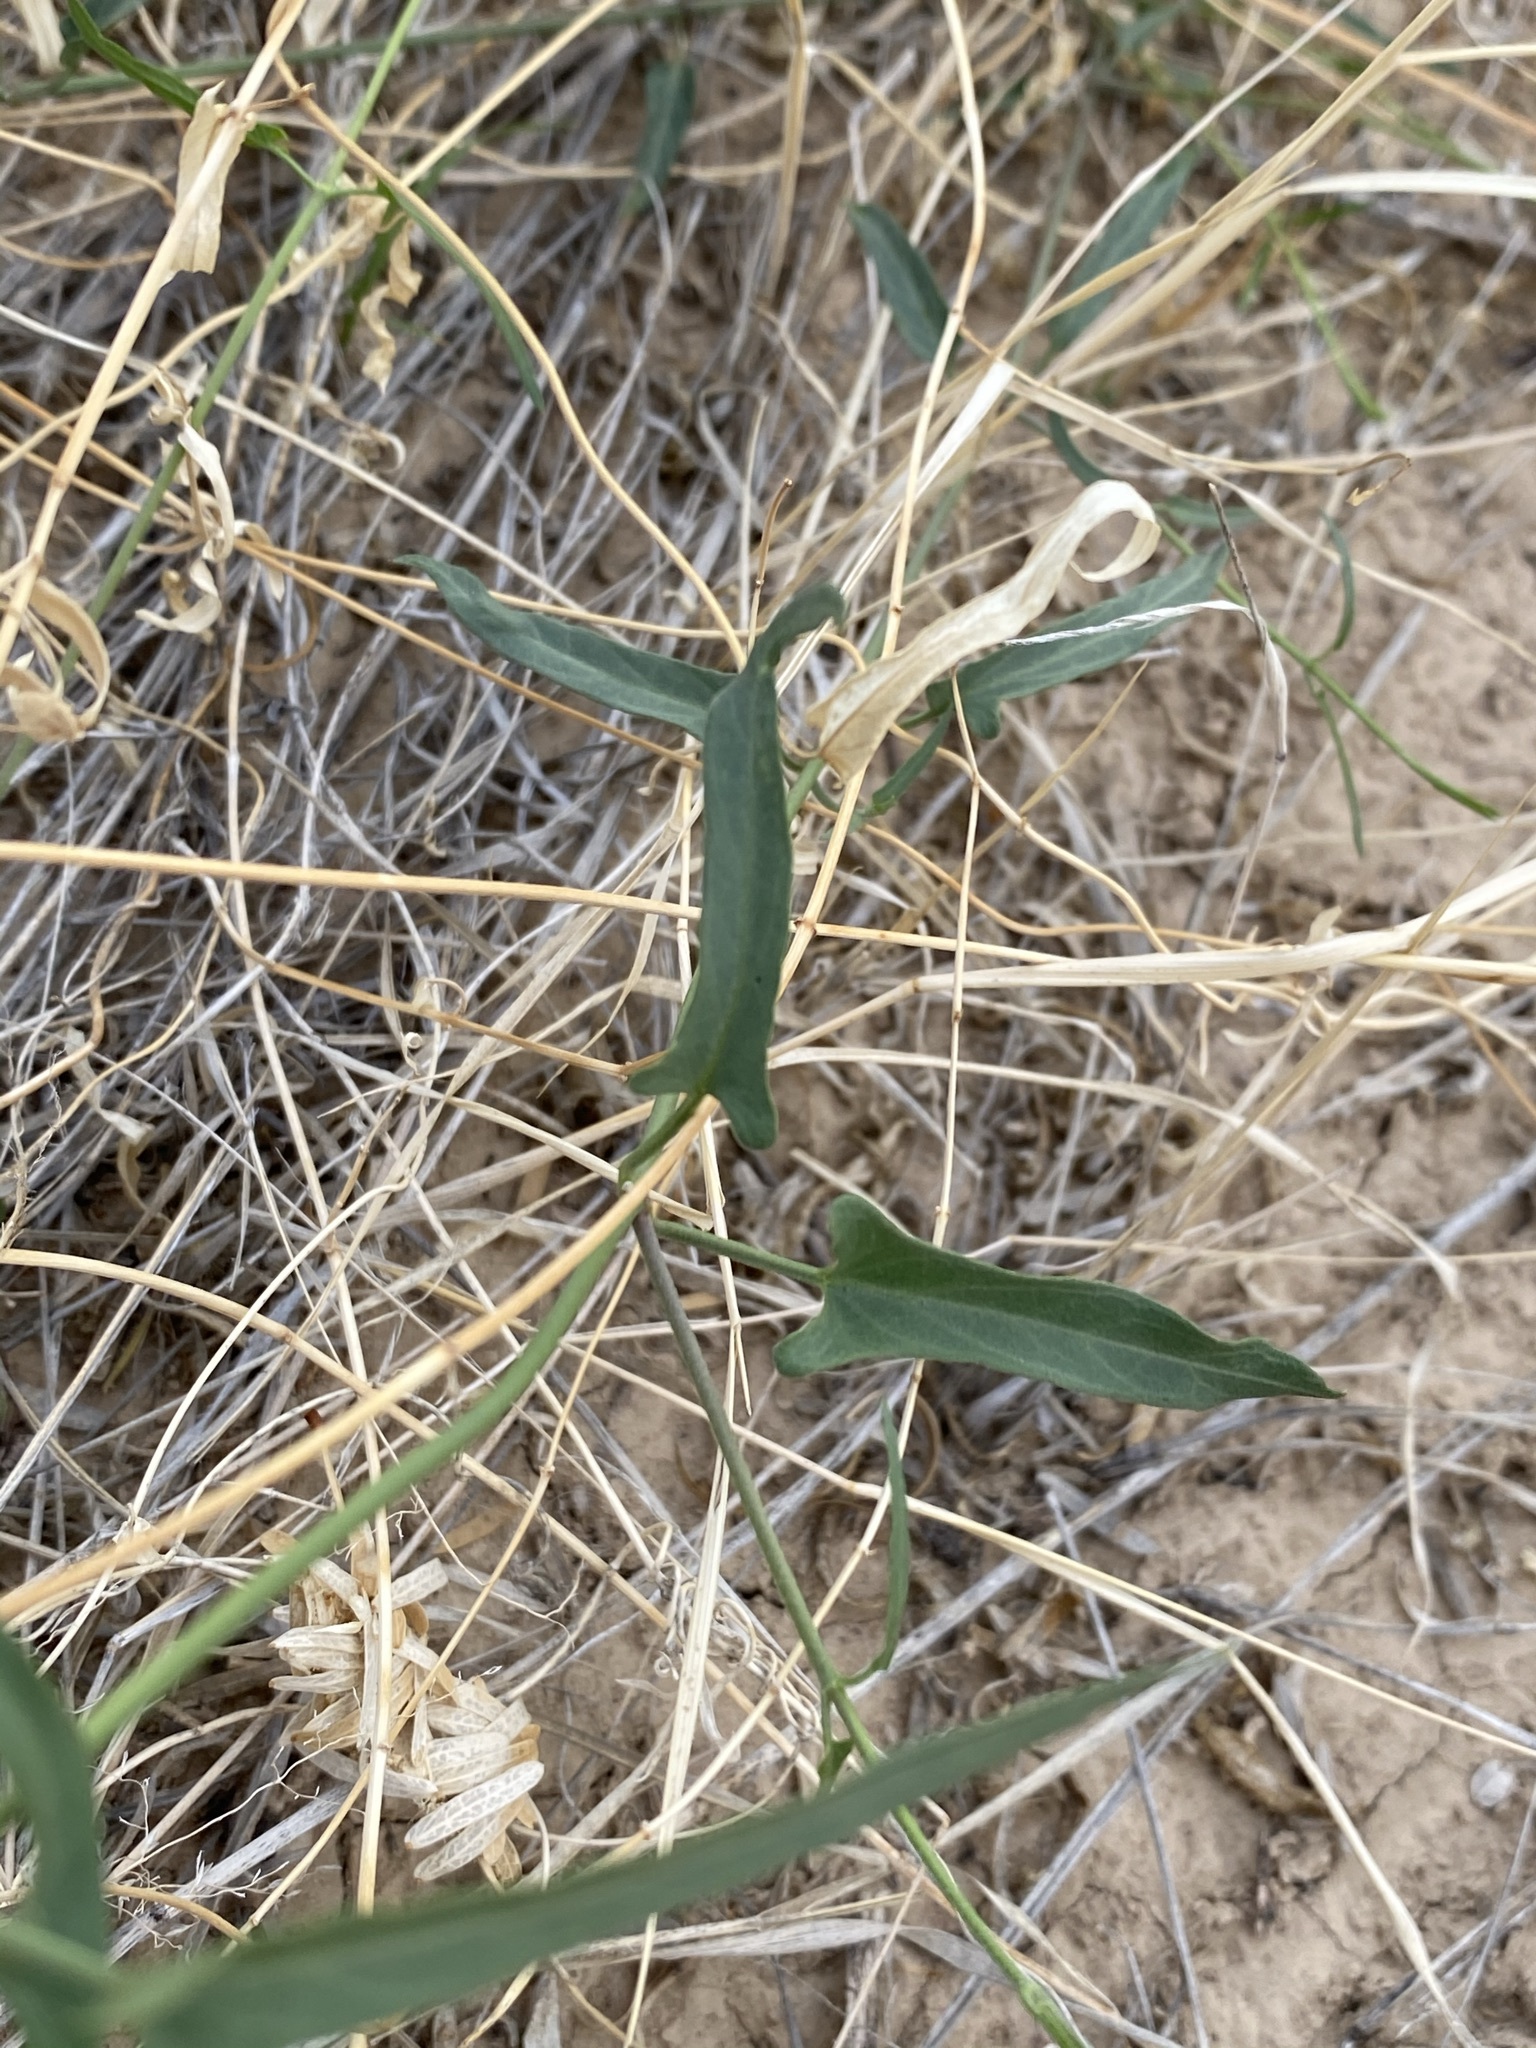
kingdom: Plantae
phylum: Tracheophyta
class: Magnoliopsida
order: Gentianales
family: Apocynaceae
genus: Funastrum
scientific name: Funastrum heterophyllum
